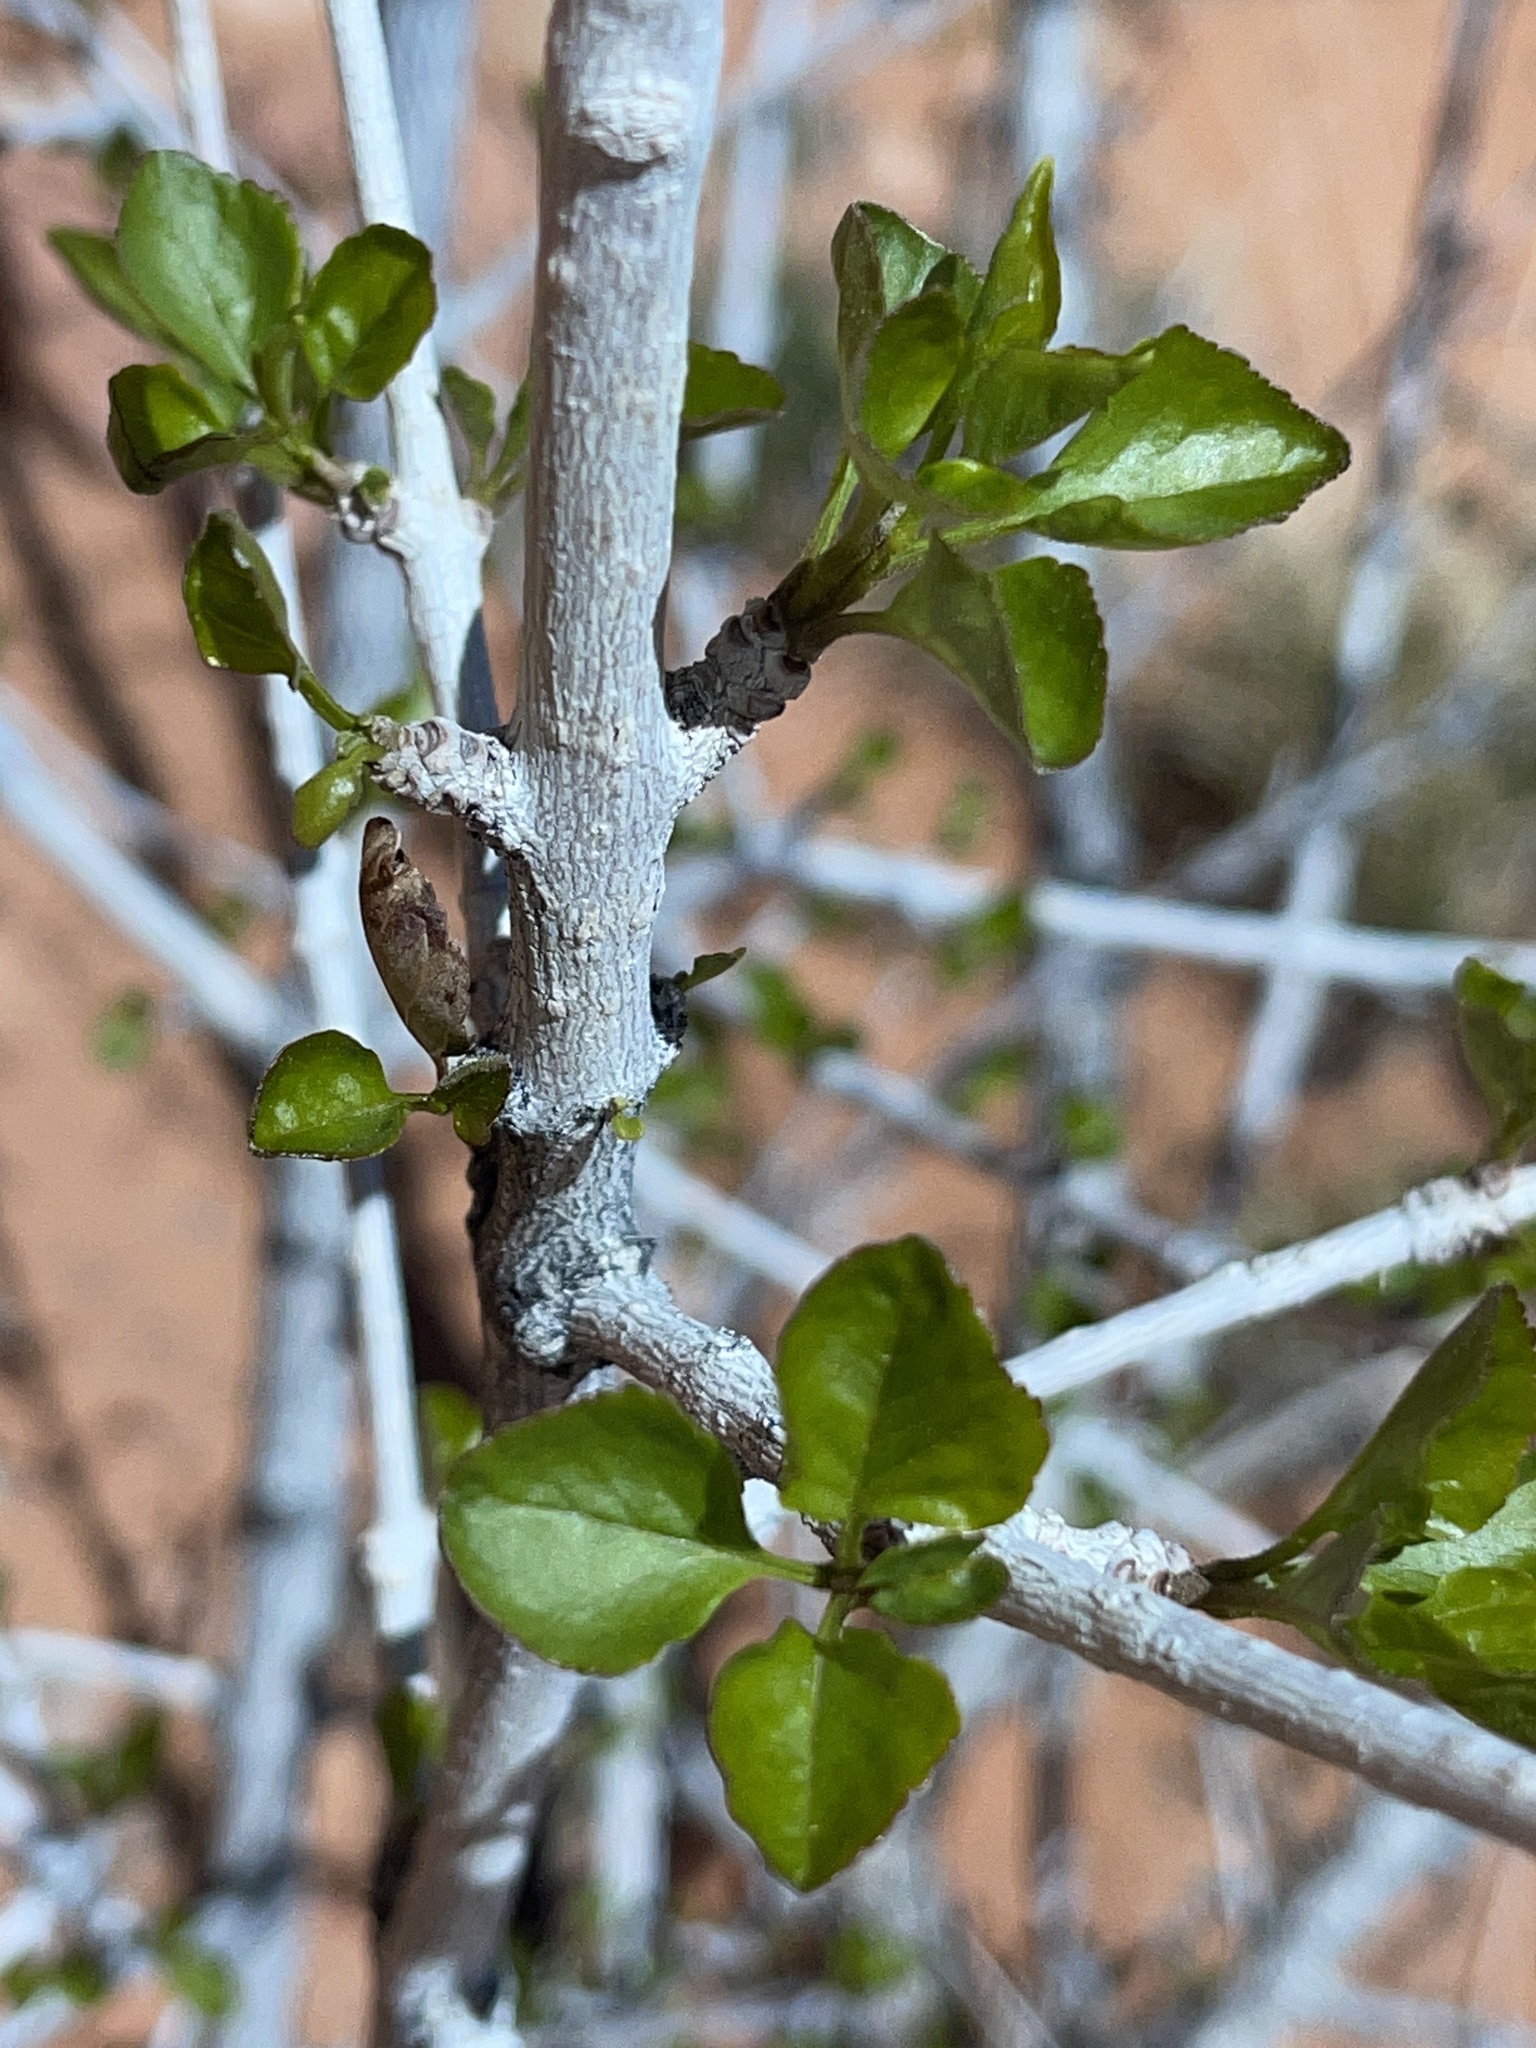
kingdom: Plantae
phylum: Tracheophyta
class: Magnoliopsida
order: Lamiales
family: Oleaceae
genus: Fraxinus
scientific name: Fraxinus anomala
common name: Utah ash
